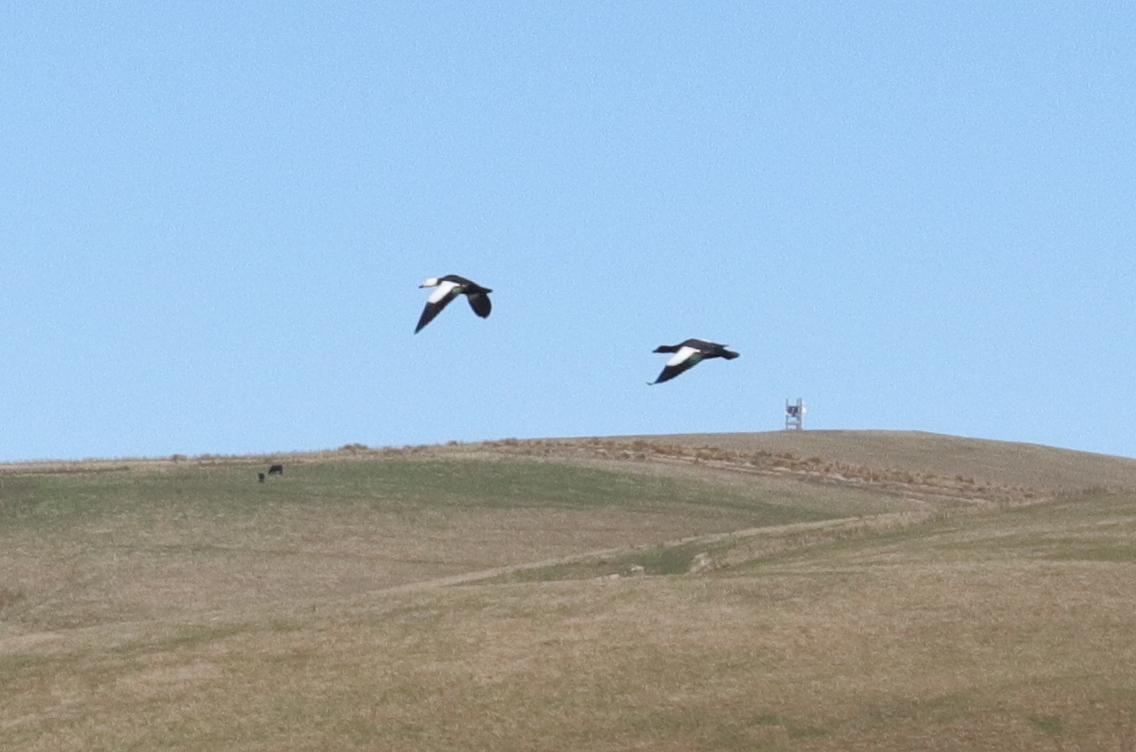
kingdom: Animalia
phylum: Chordata
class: Aves
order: Anseriformes
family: Anatidae
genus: Tadorna
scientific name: Tadorna variegata
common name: Paradise shelduck
